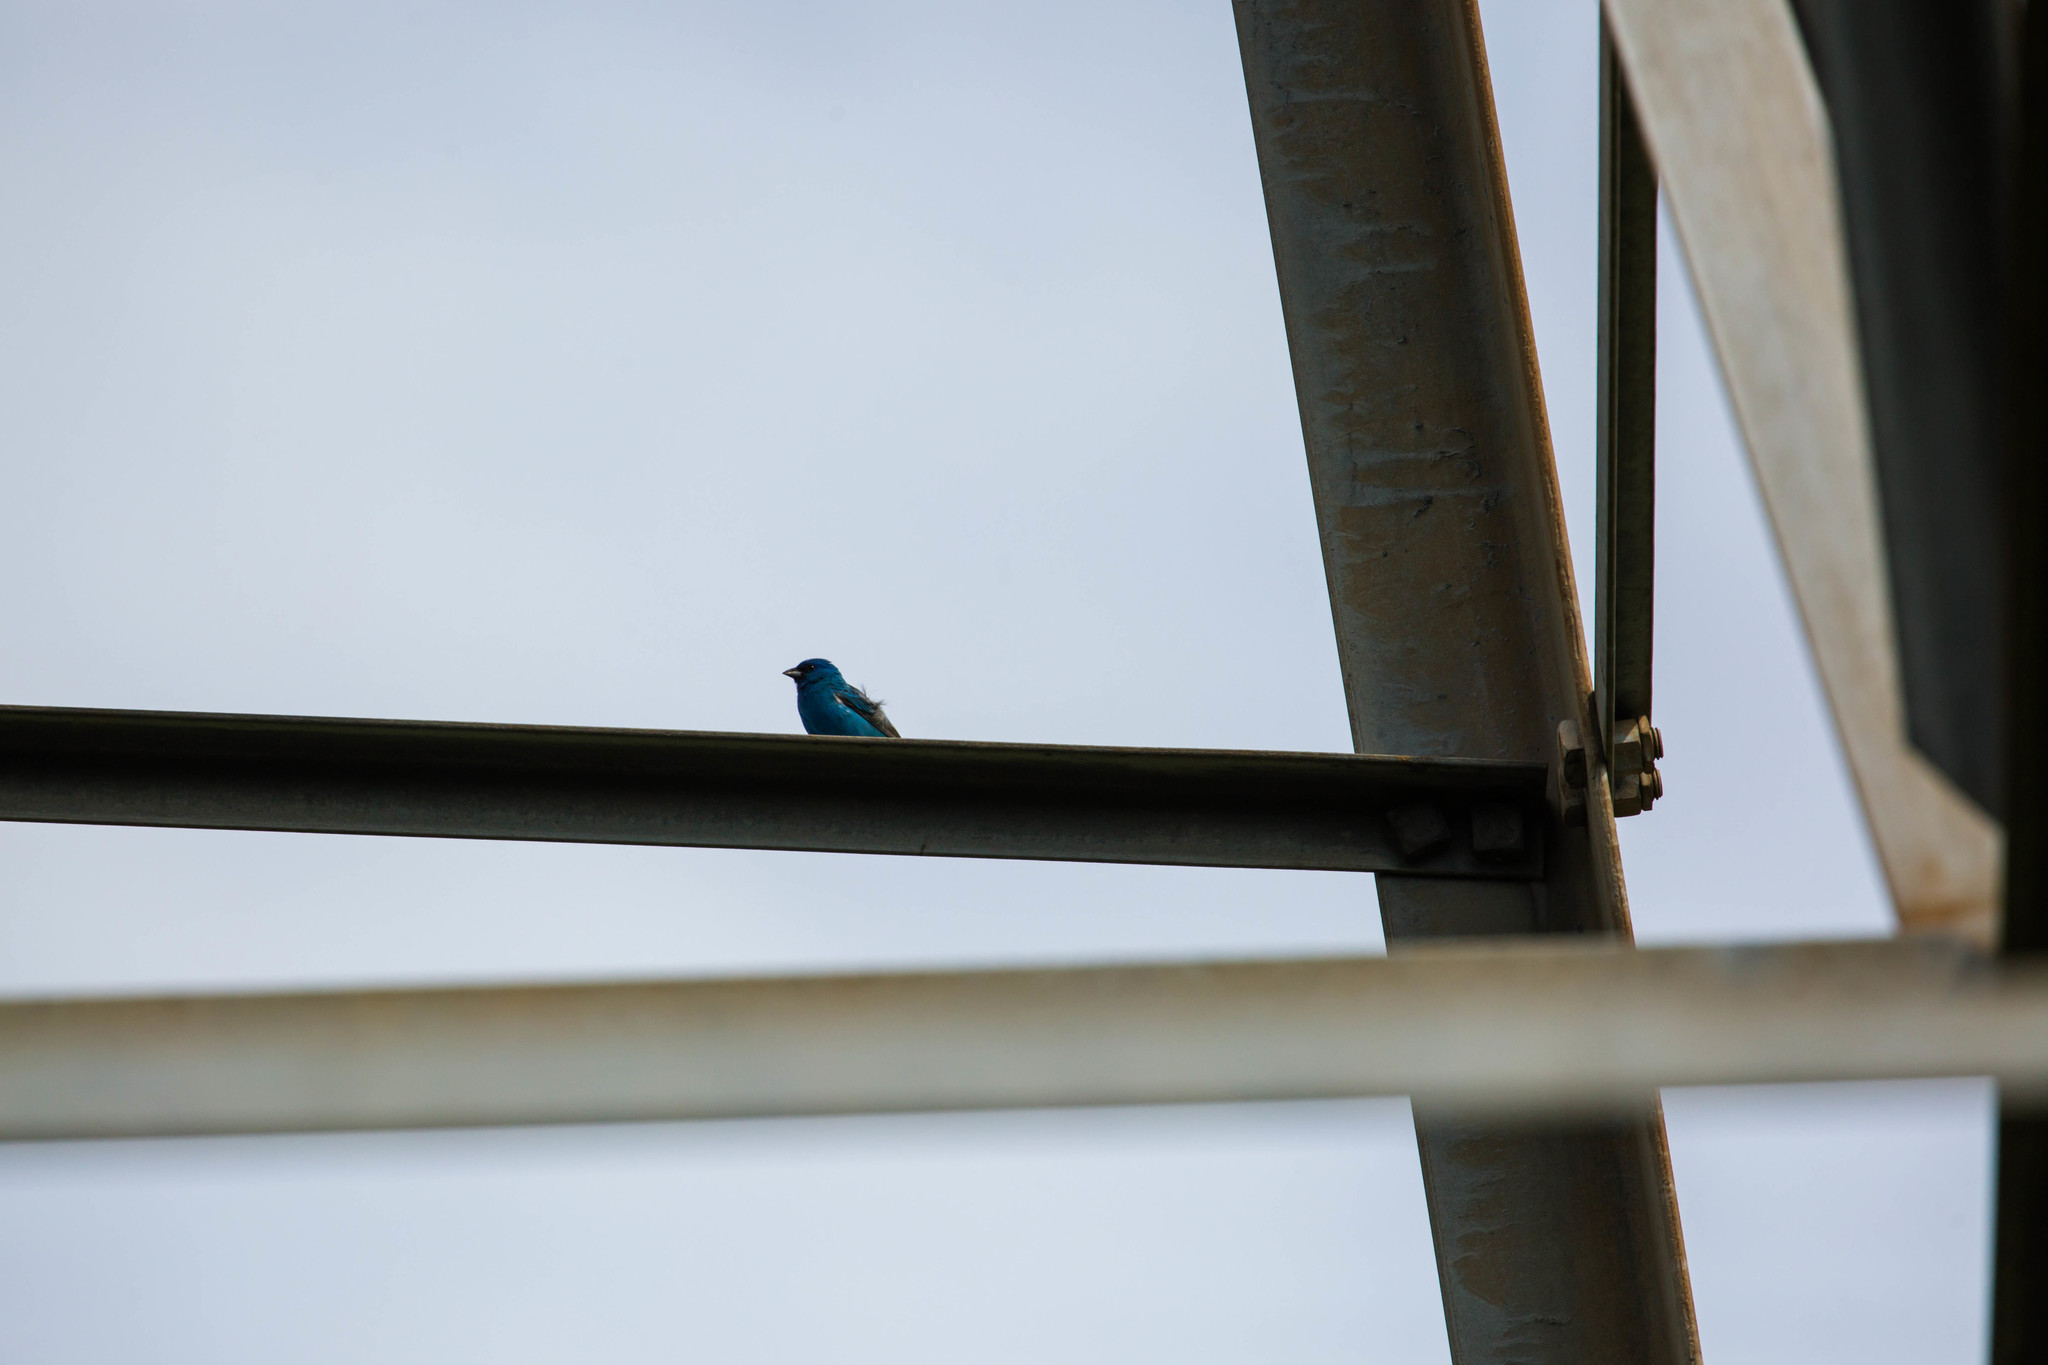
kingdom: Animalia
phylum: Chordata
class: Aves
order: Passeriformes
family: Cardinalidae
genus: Passerina
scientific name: Passerina cyanea
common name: Indigo bunting
